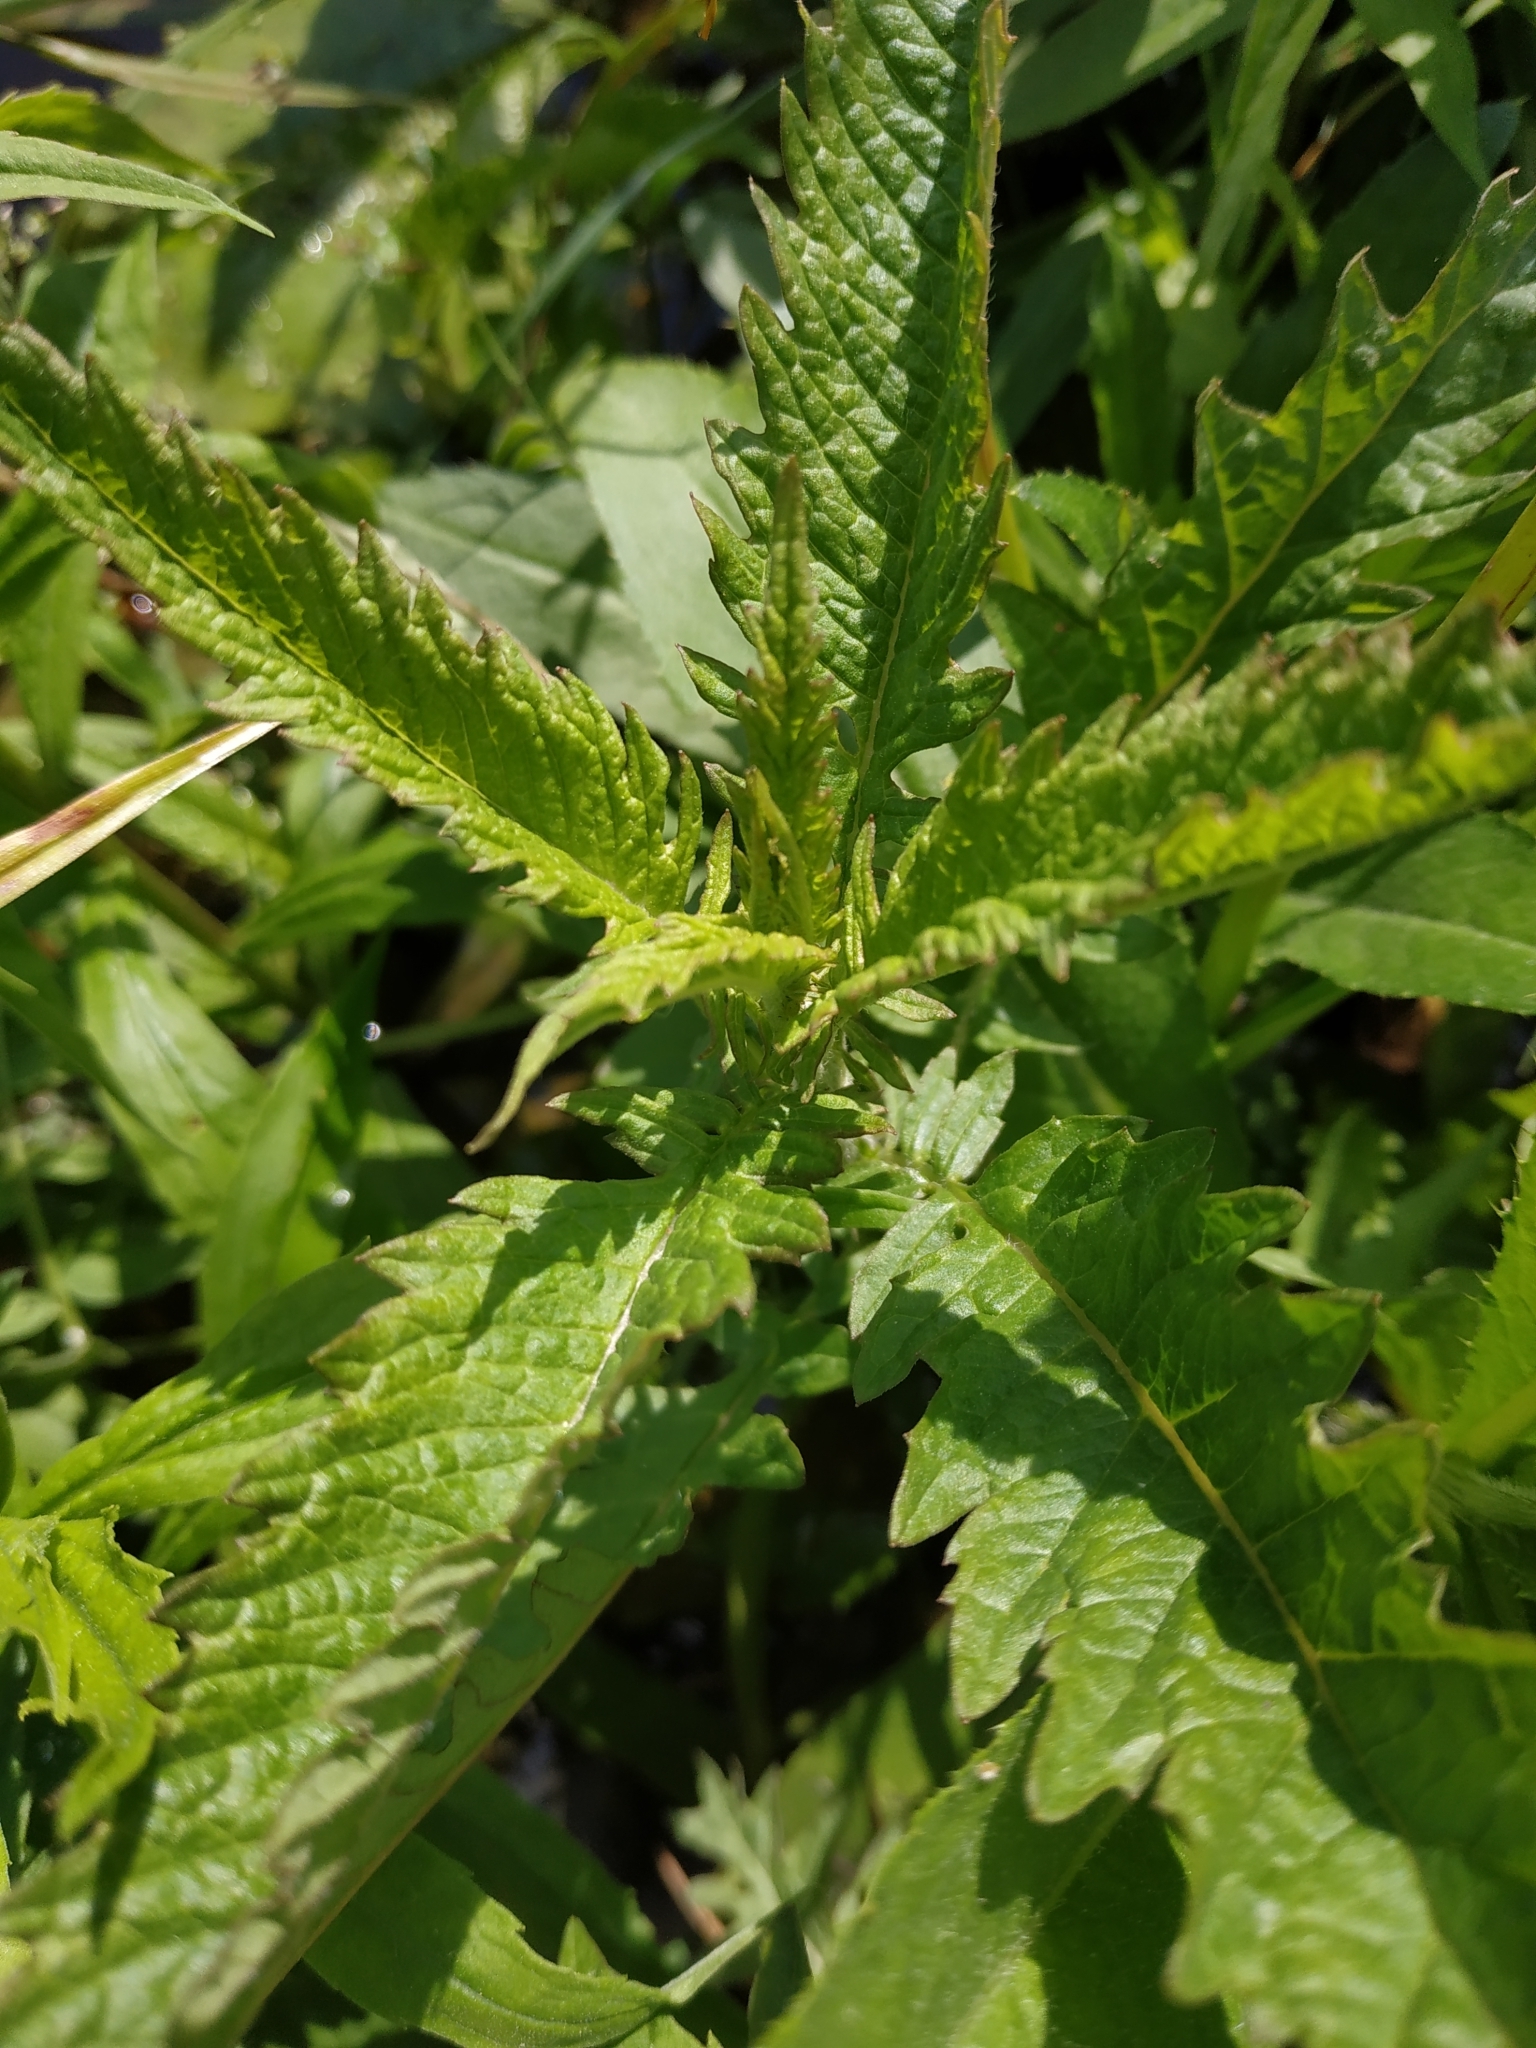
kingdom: Plantae
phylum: Tracheophyta
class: Magnoliopsida
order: Lamiales
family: Lamiaceae
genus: Lycopus
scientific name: Lycopus europaeus
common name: European bugleweed
